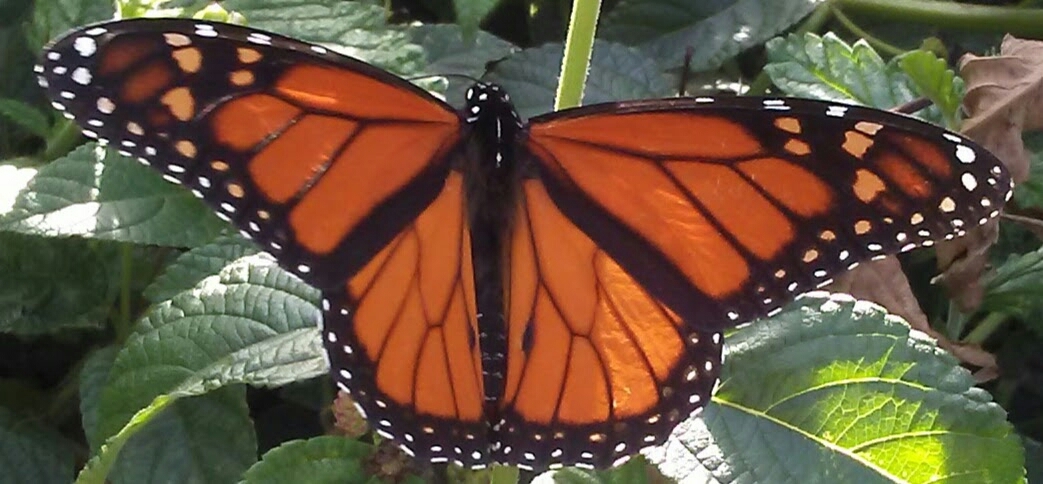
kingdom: Animalia
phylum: Arthropoda
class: Insecta
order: Lepidoptera
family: Nymphalidae
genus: Danaus
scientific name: Danaus plexippus
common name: Monarch
